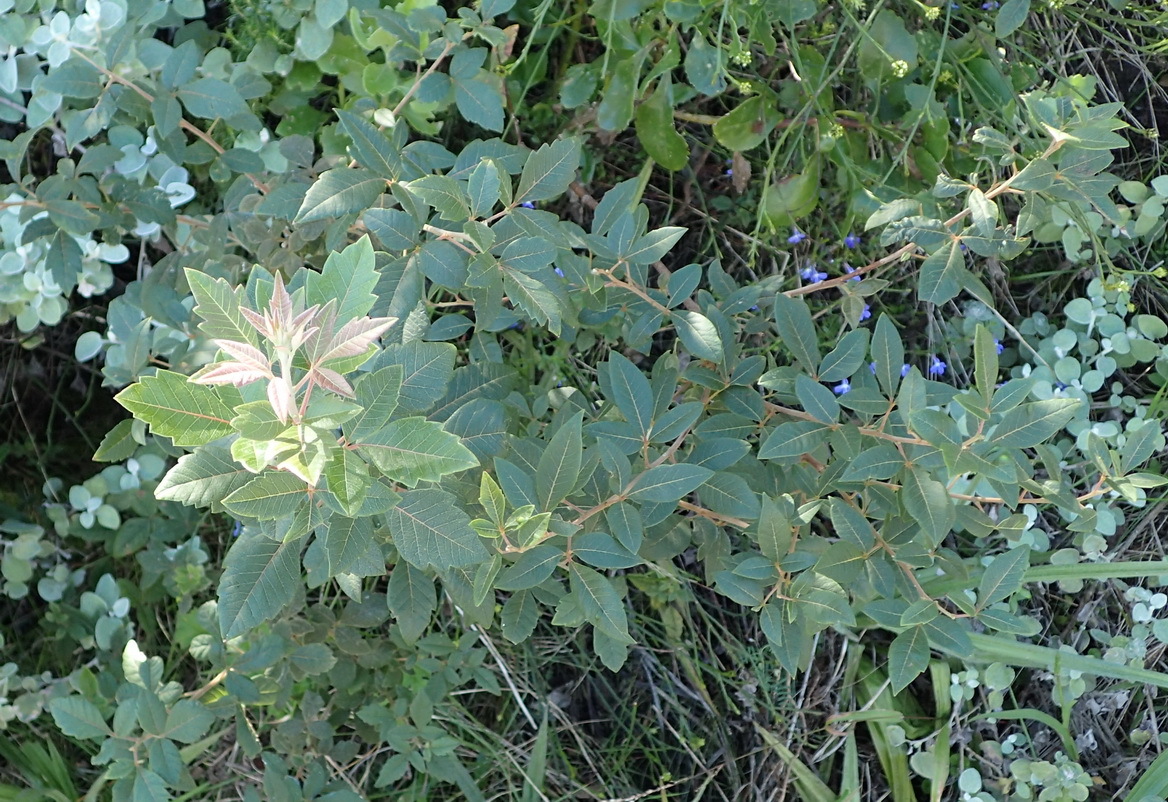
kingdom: Plantae
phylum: Tracheophyta
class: Magnoliopsida
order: Sapindales
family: Anacardiaceae
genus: Searsia
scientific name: Searsia tomentosa
